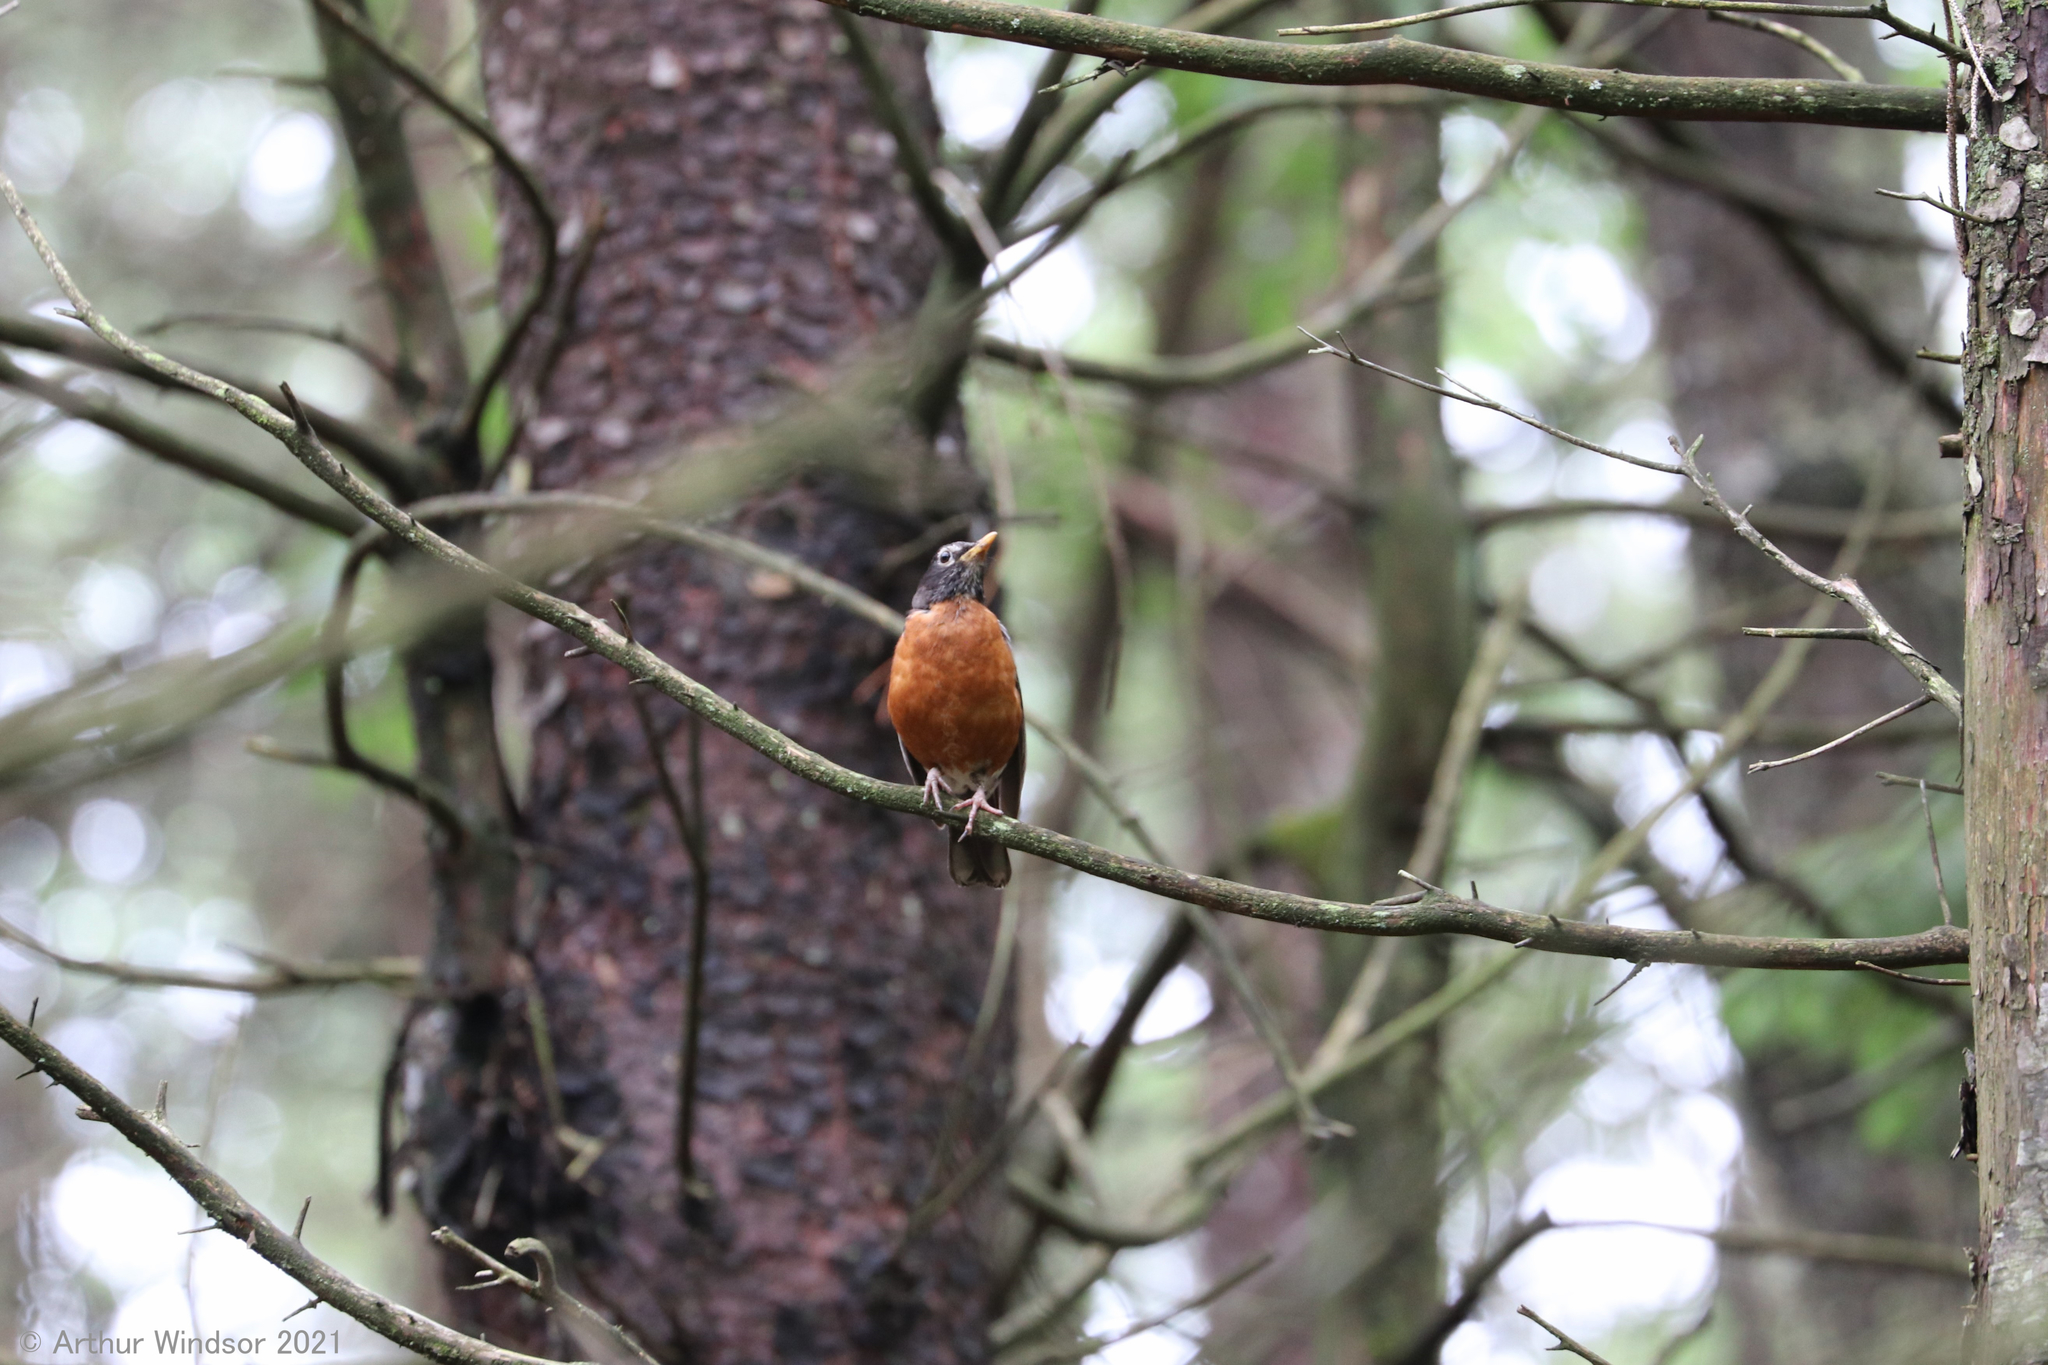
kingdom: Animalia
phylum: Chordata
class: Aves
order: Passeriformes
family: Turdidae
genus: Turdus
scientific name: Turdus migratorius
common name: American robin
